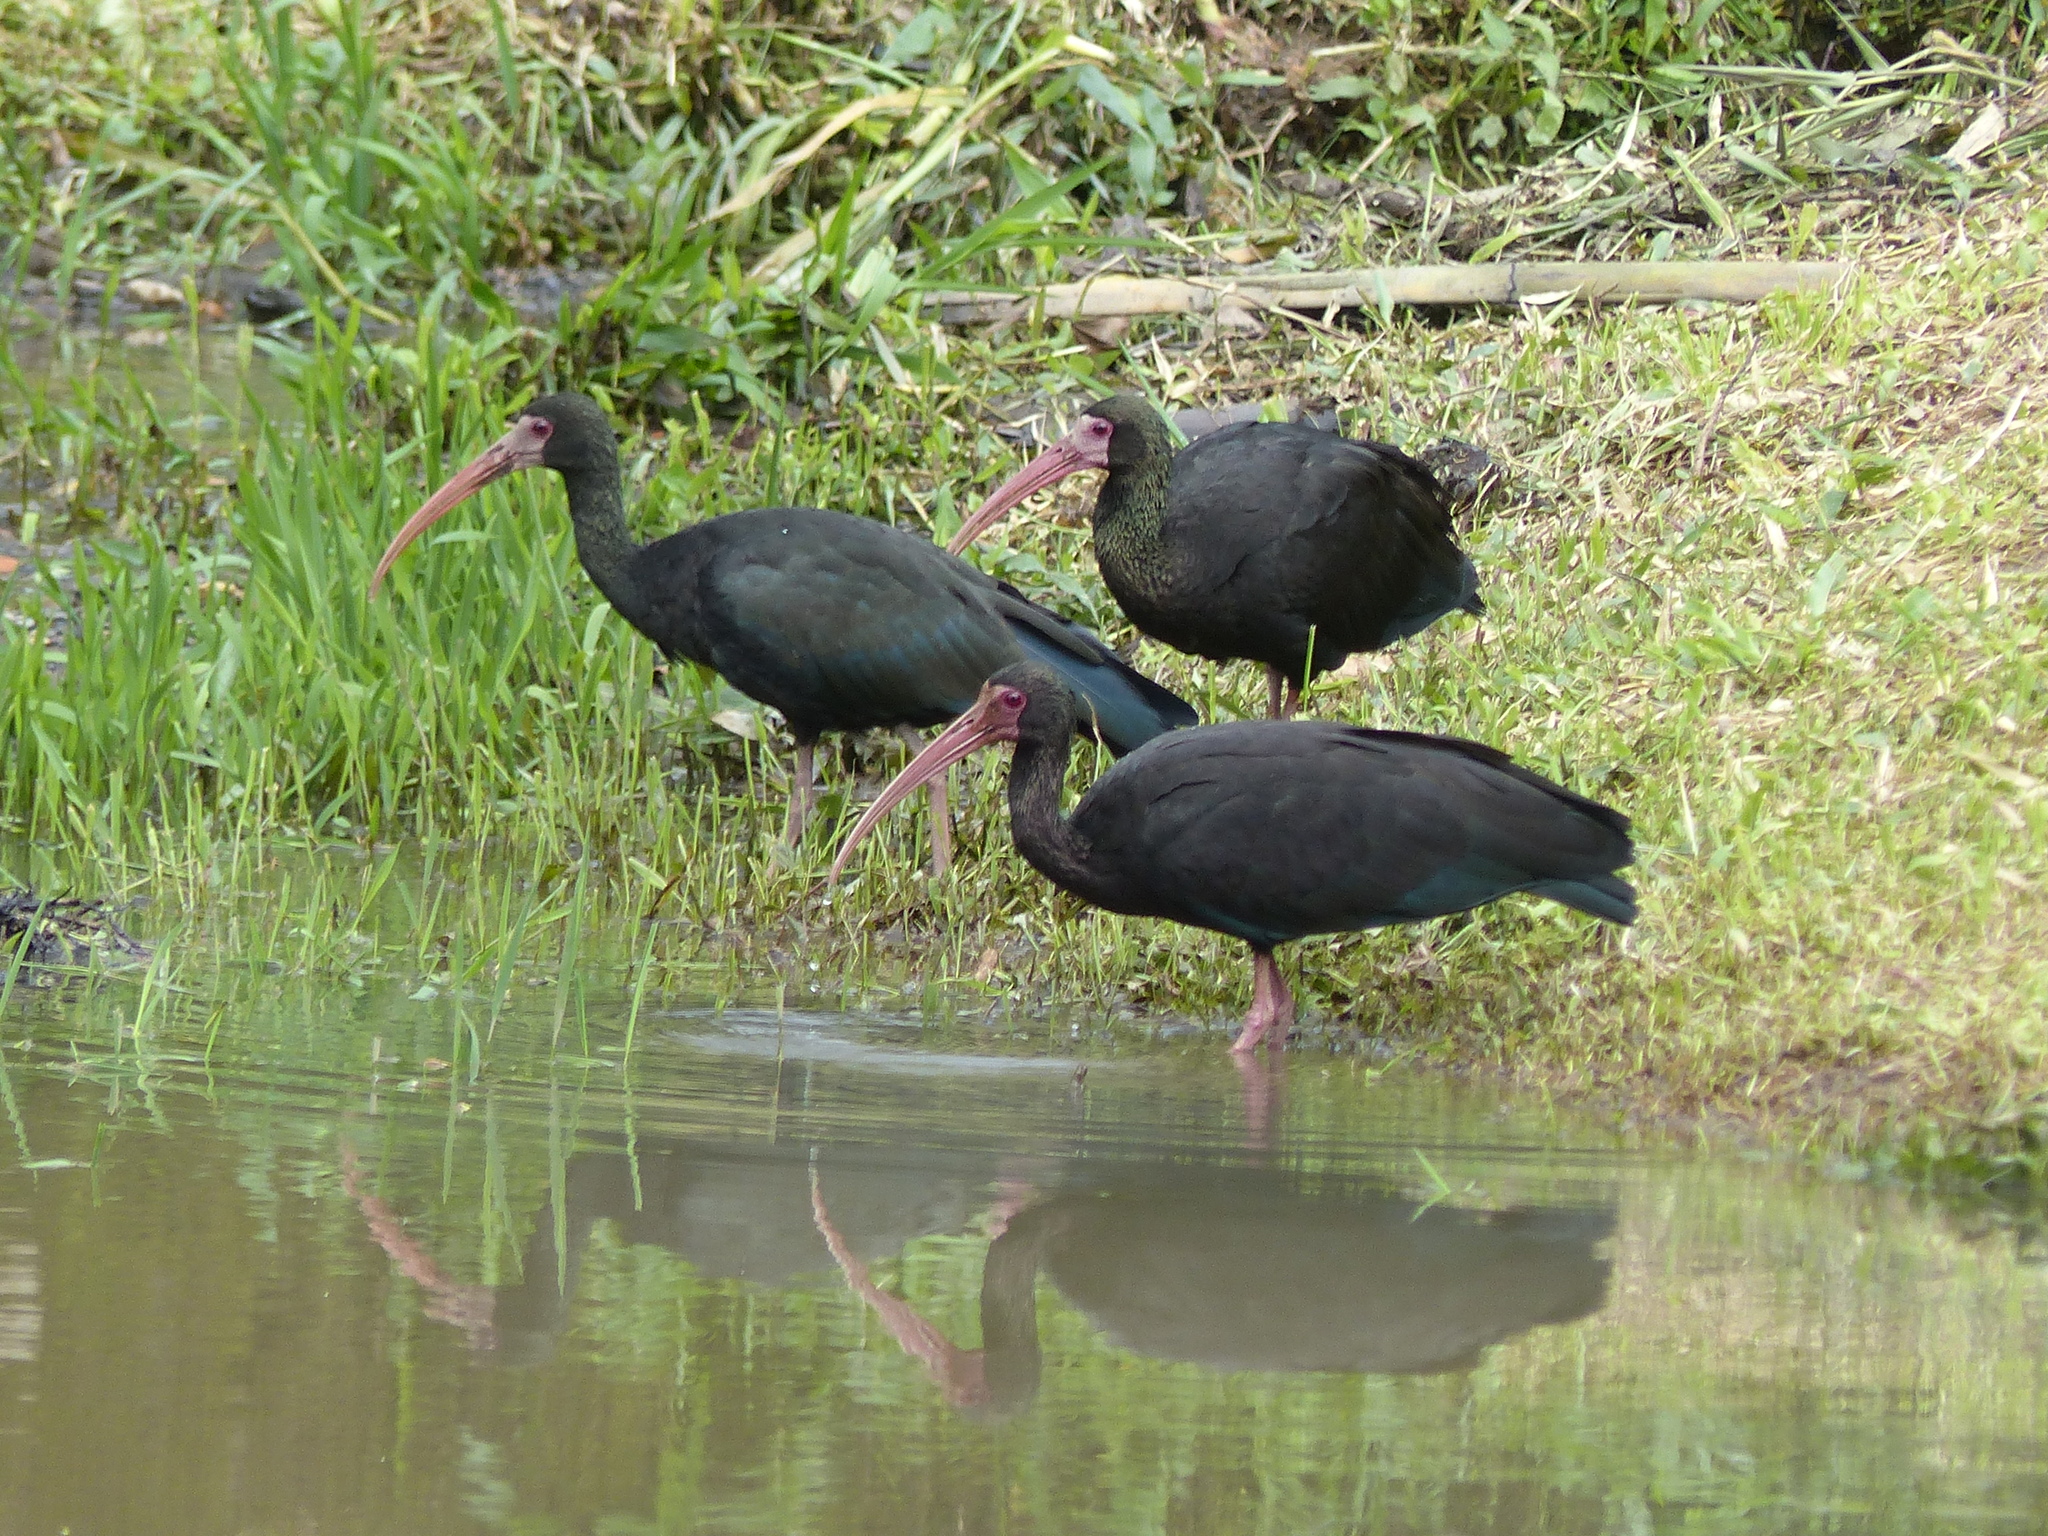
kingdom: Animalia
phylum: Chordata
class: Aves
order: Pelecaniformes
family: Threskiornithidae
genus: Phimosus
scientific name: Phimosus infuscatus
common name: Bare-faced ibis
